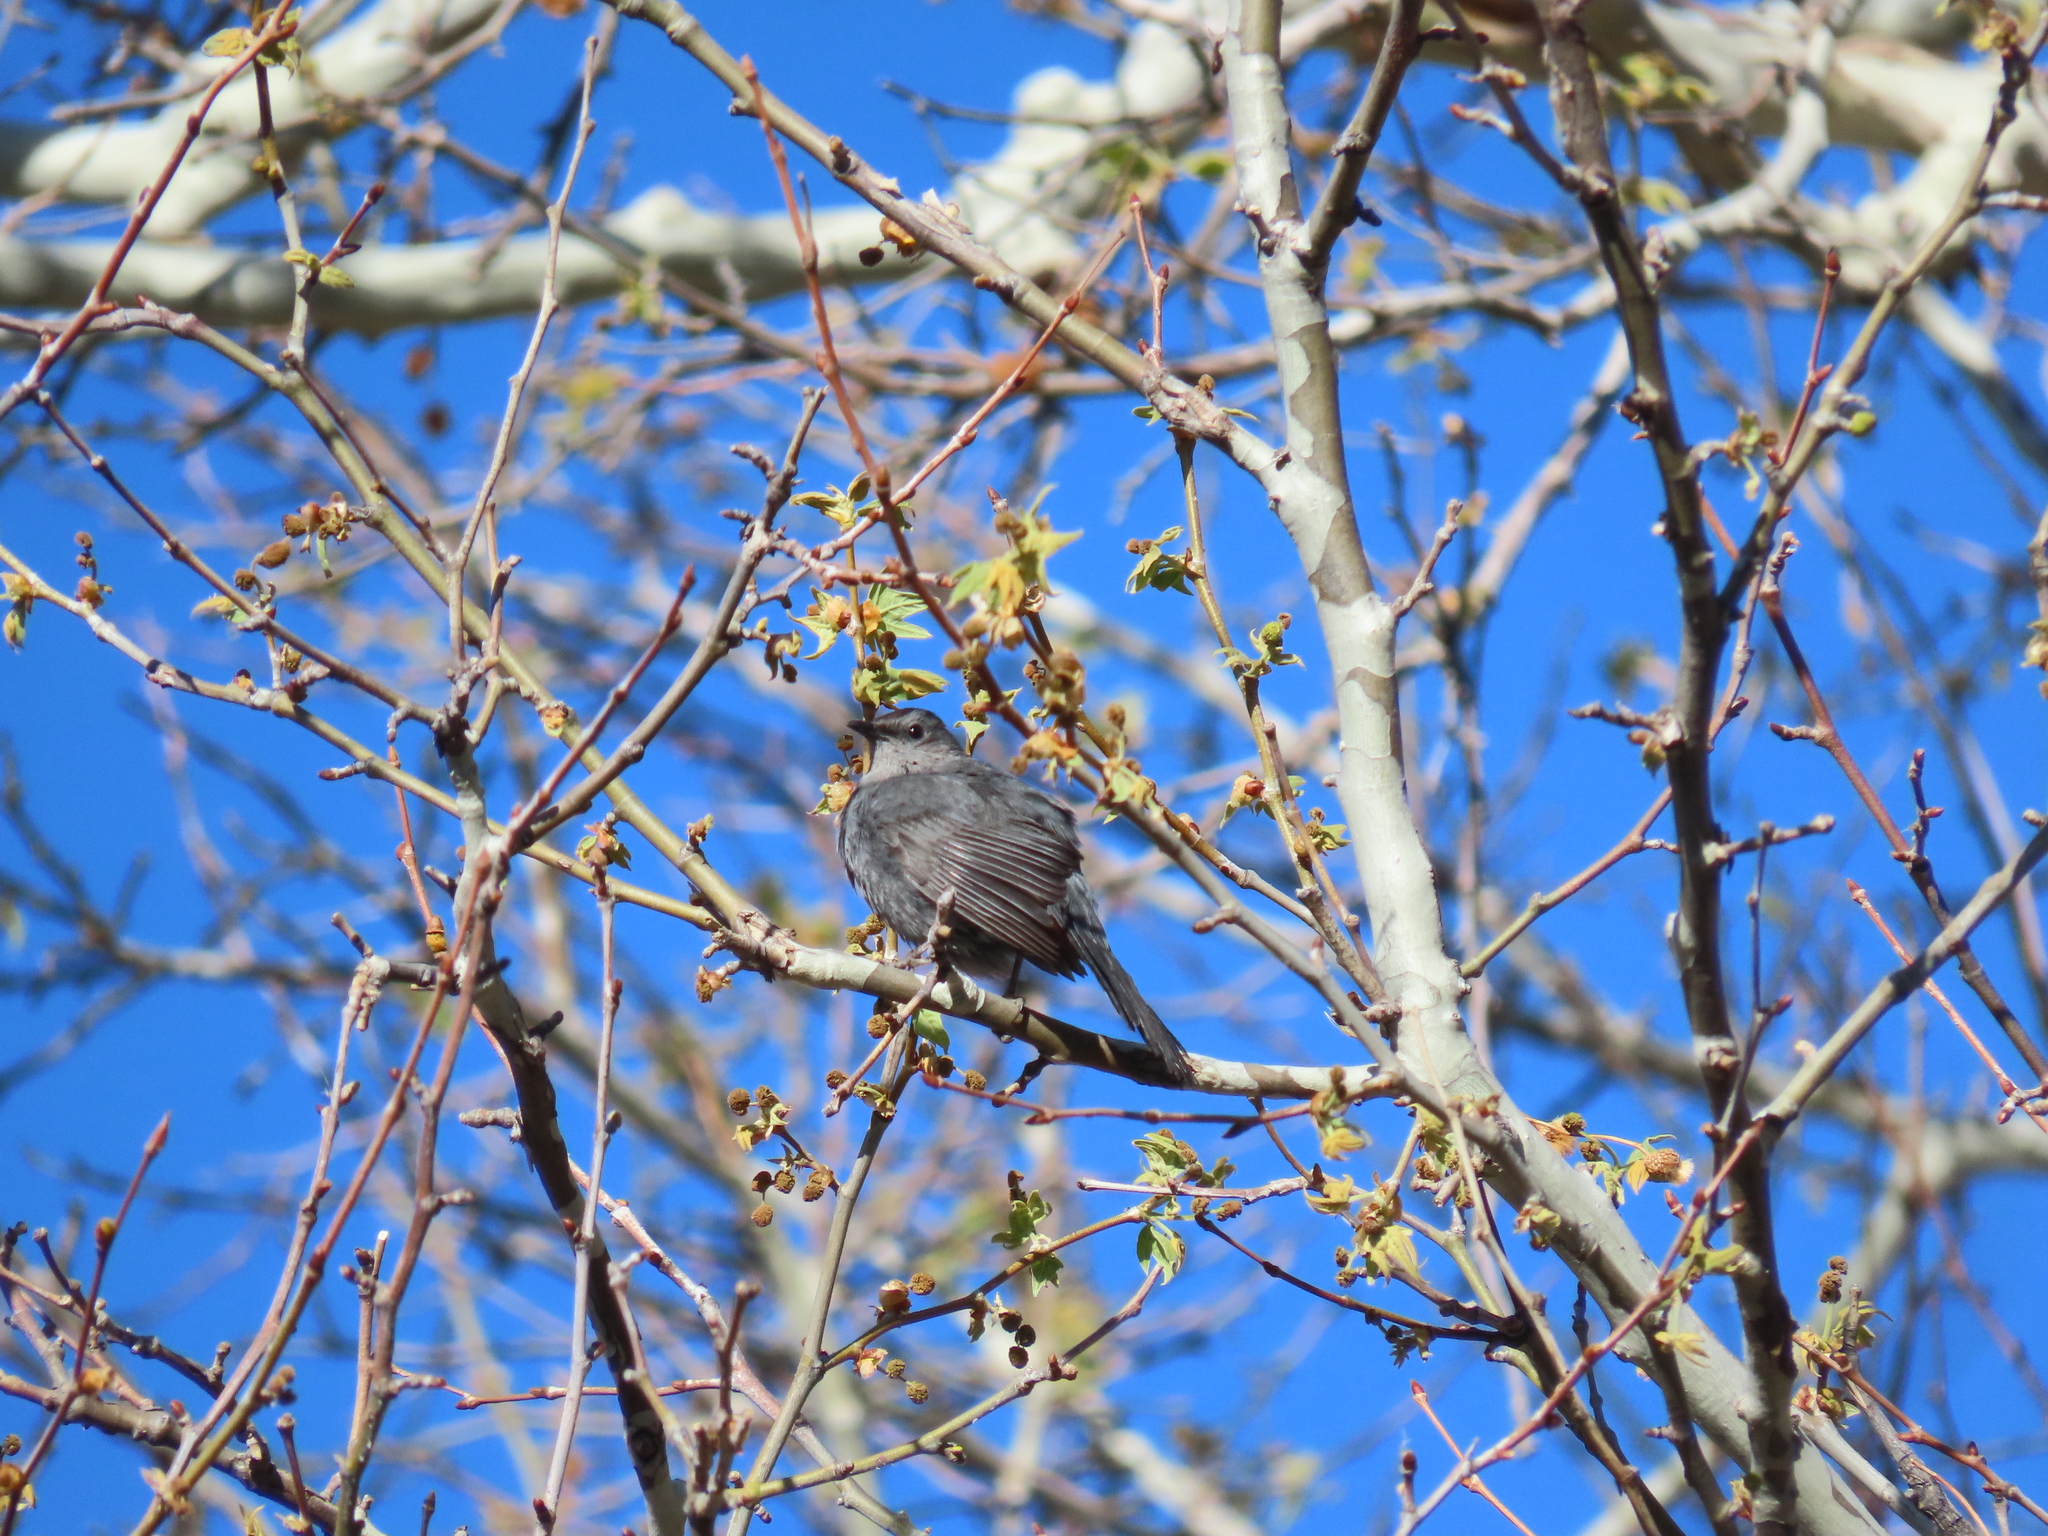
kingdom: Animalia
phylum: Chordata
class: Aves
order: Passeriformes
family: Mimidae
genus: Dumetella
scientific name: Dumetella carolinensis
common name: Gray catbird
